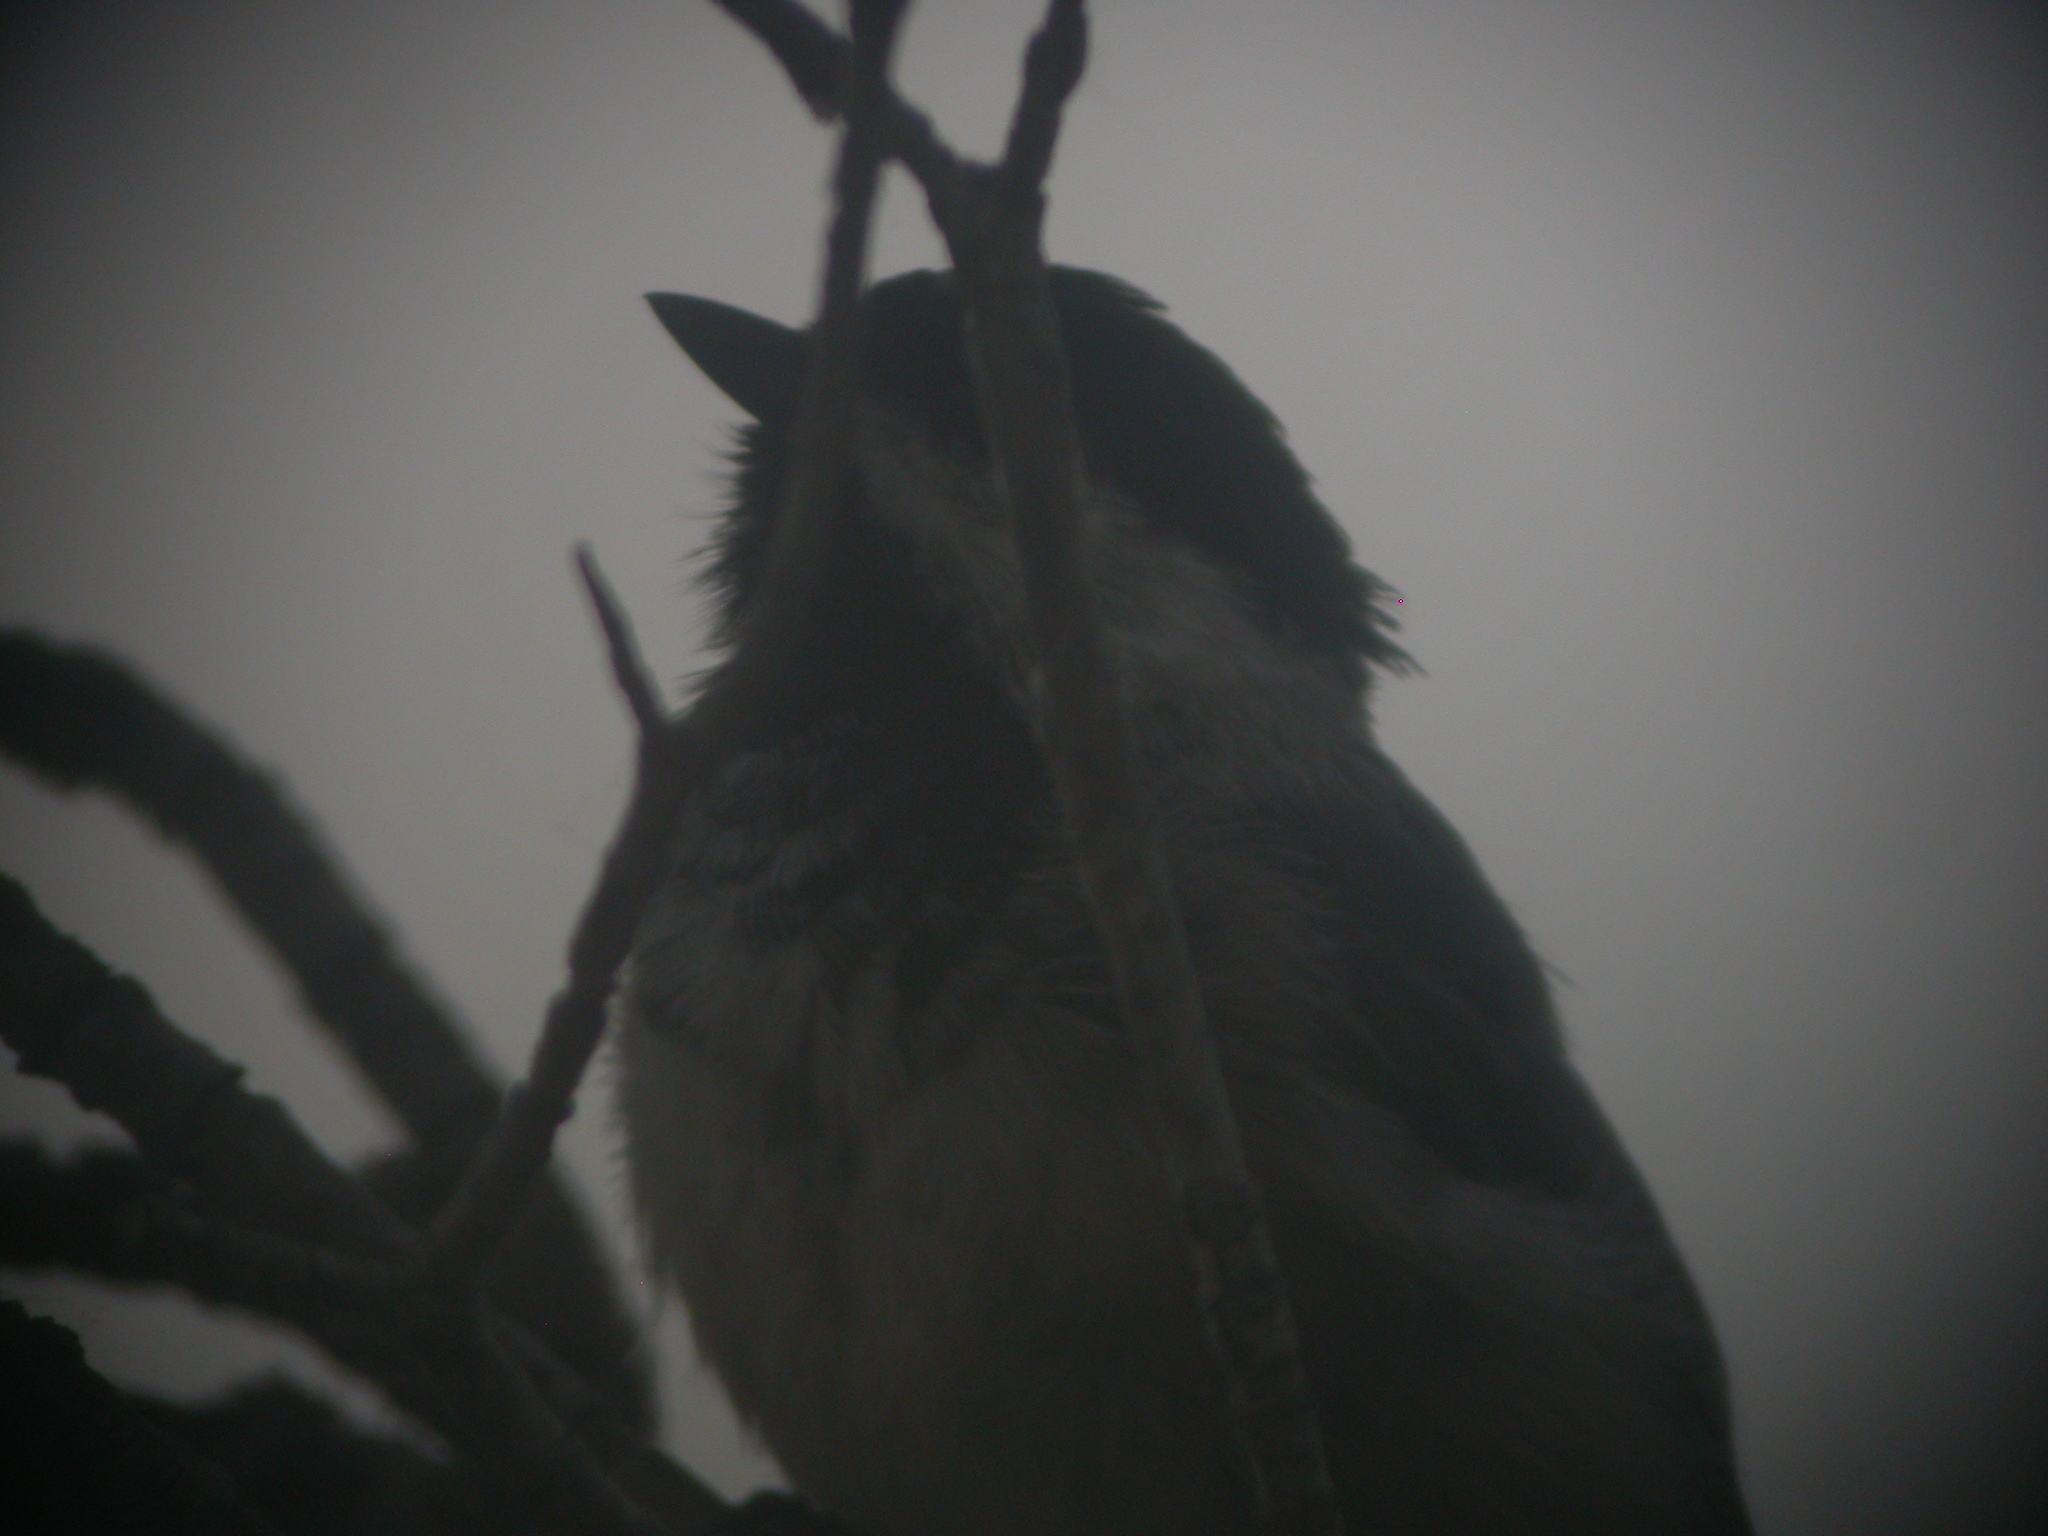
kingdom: Animalia
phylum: Chordata
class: Aves
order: Passeriformes
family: Paridae
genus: Poecile
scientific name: Poecile atricapillus
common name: Black-capped chickadee
